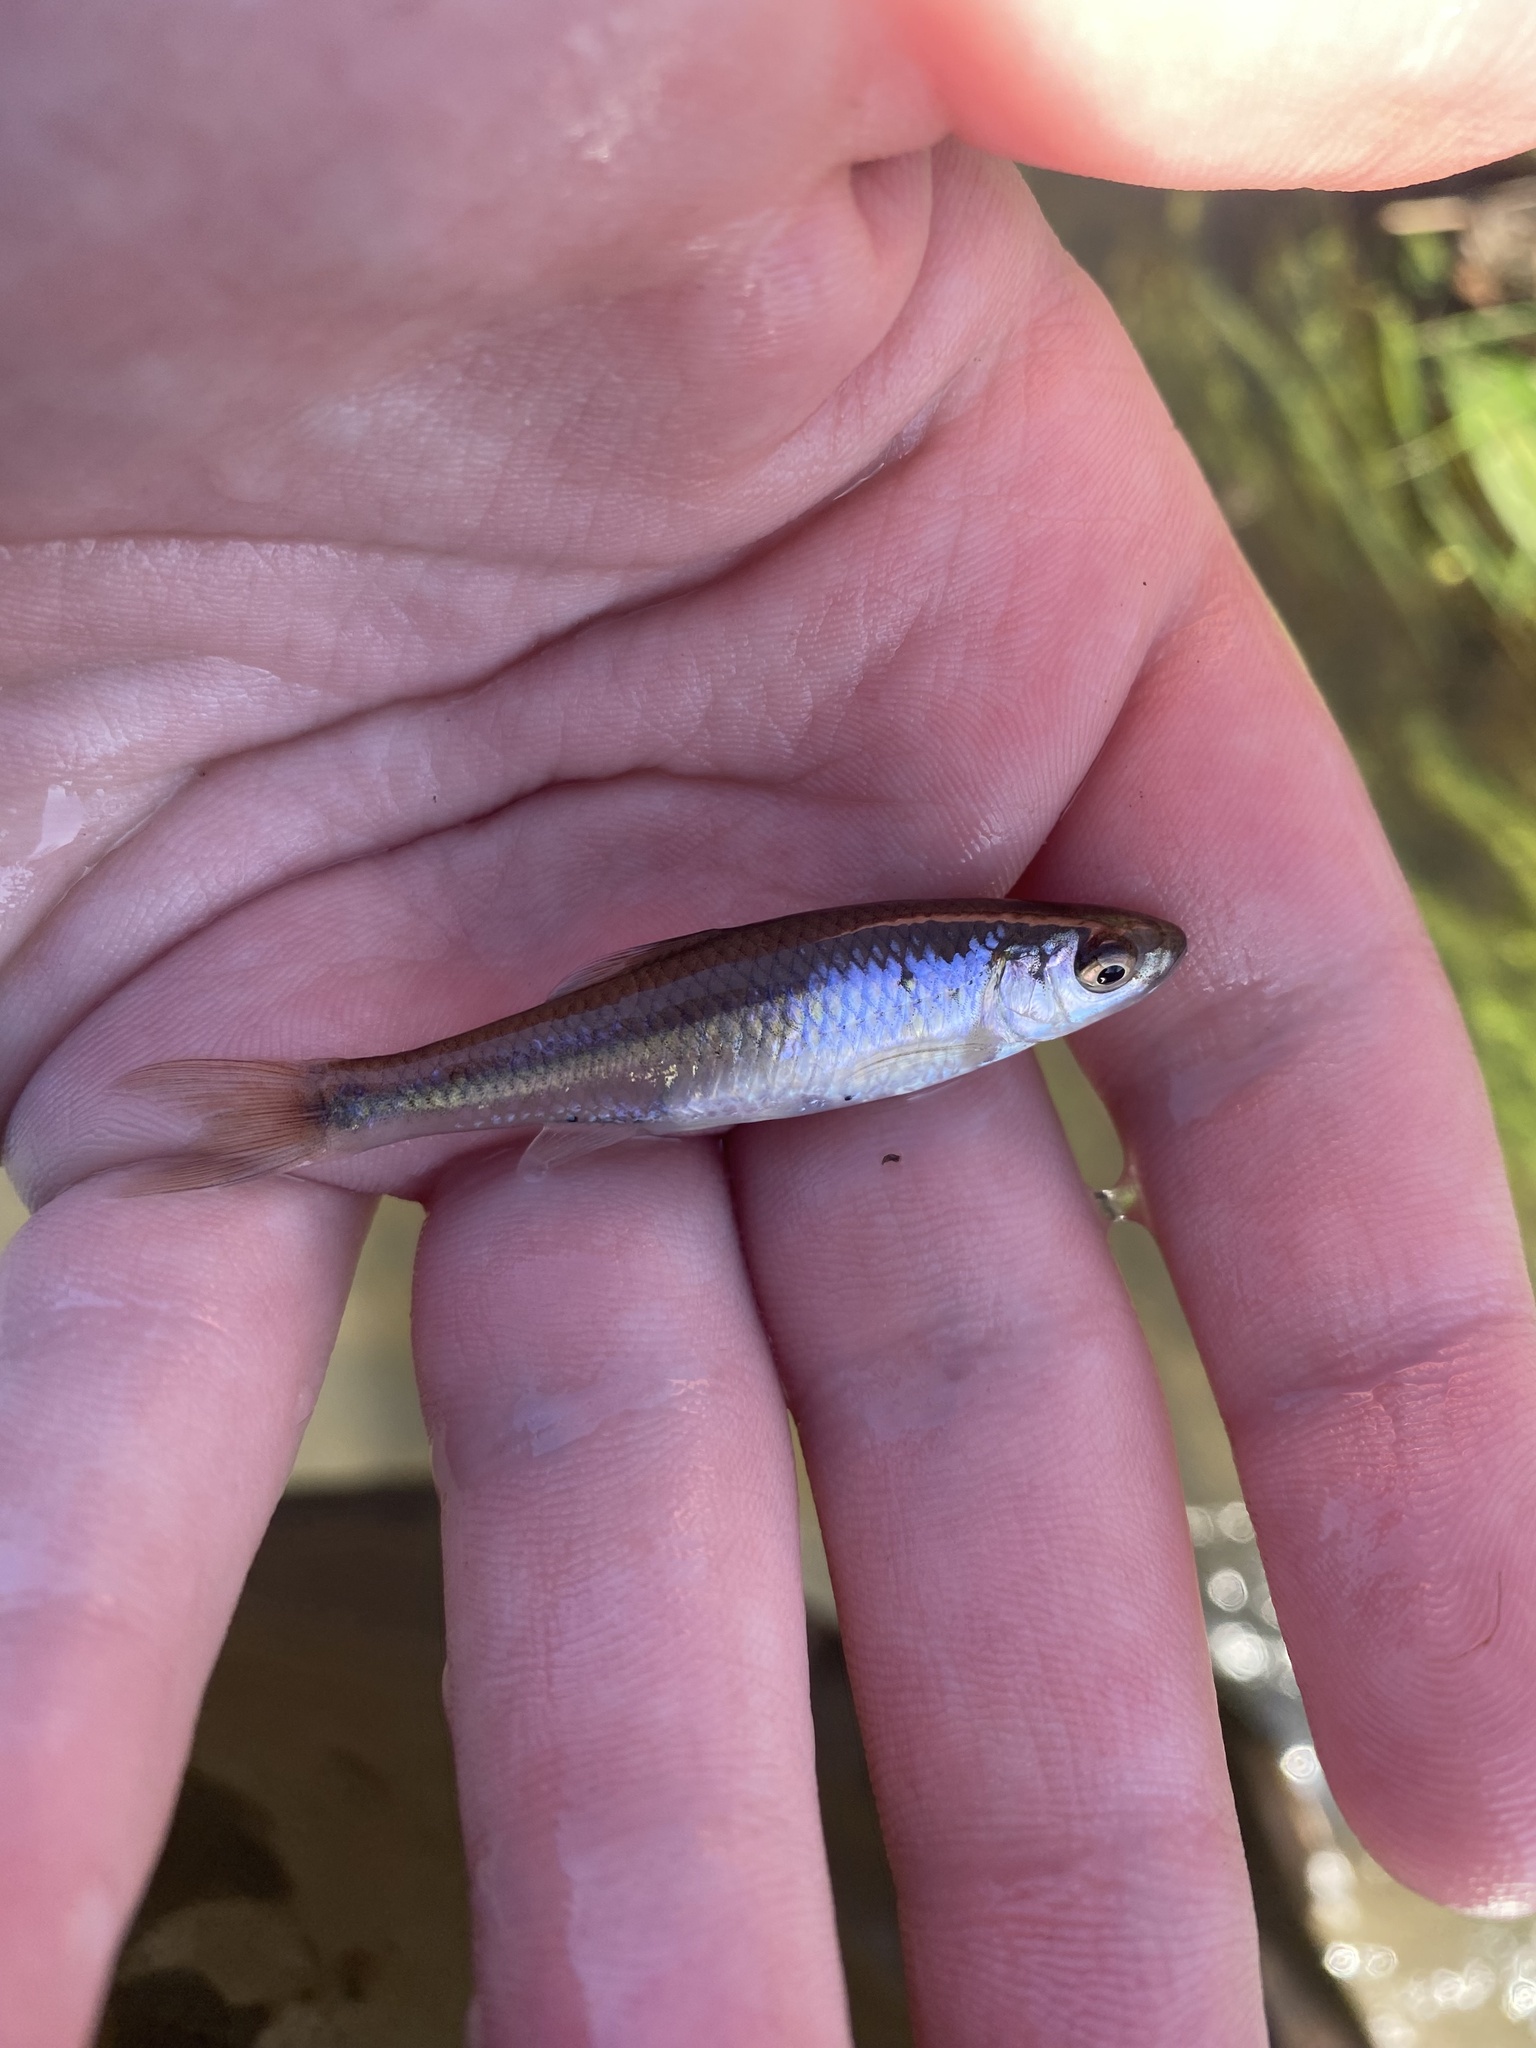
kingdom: Animalia
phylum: Chordata
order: Cypriniformes
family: Cyprinidae
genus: Cyprinella
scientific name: Cyprinella spiloptera
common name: Spotfin shiner
